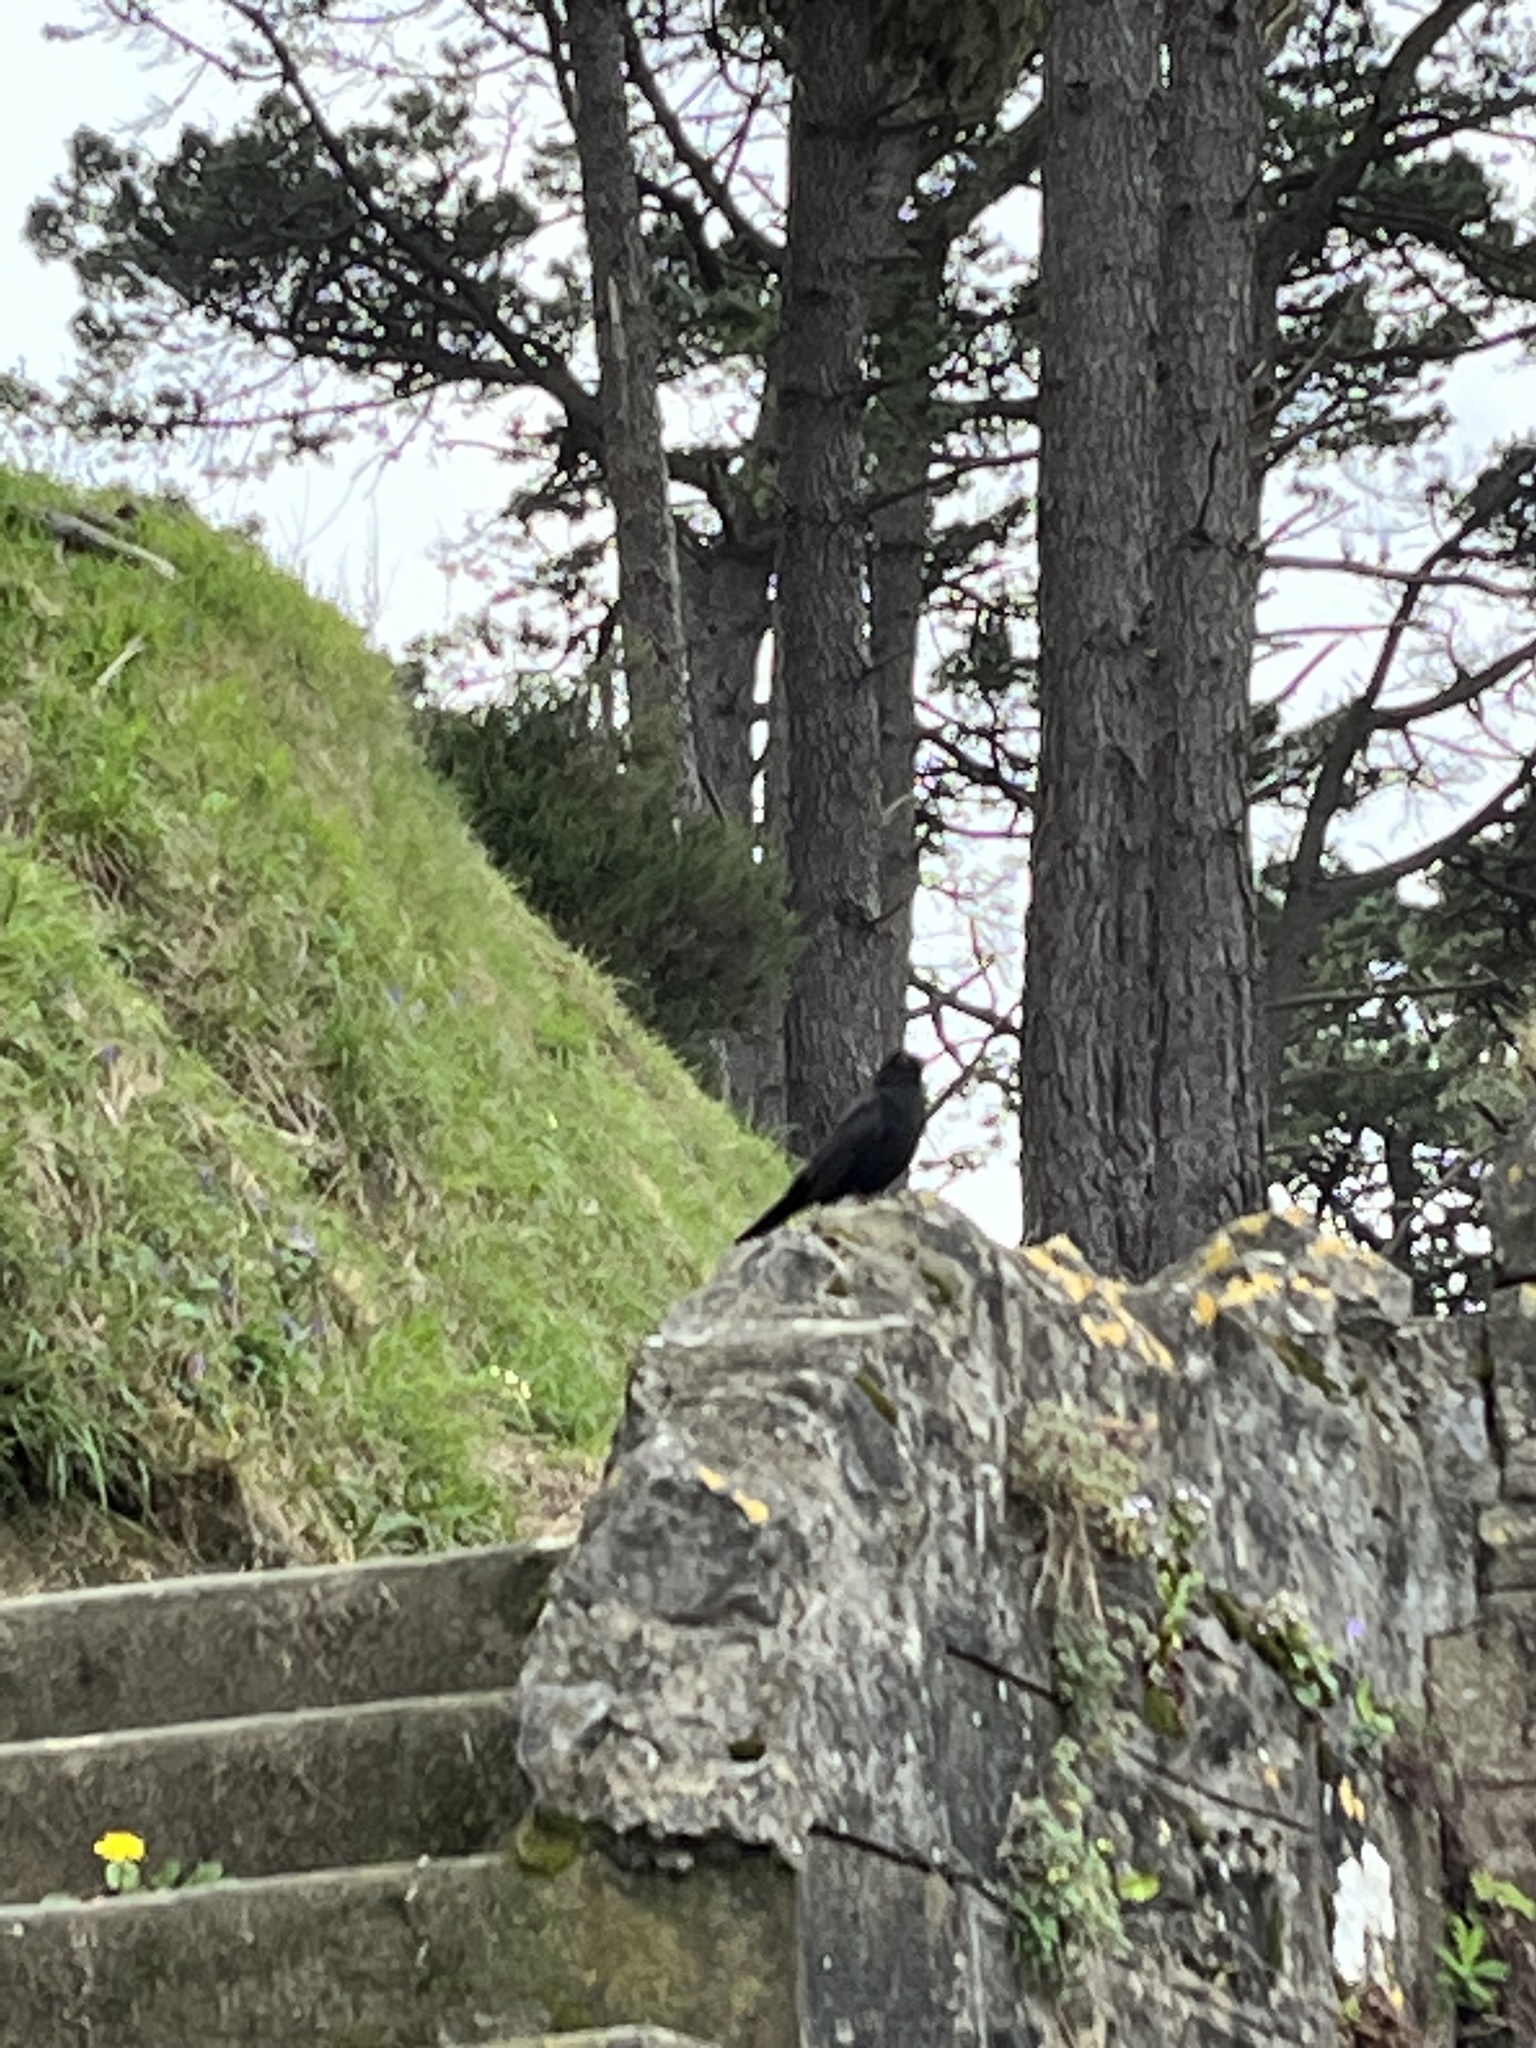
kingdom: Animalia
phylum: Chordata
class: Aves
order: Passeriformes
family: Turdidae
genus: Turdus
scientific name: Turdus merula
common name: Common blackbird
